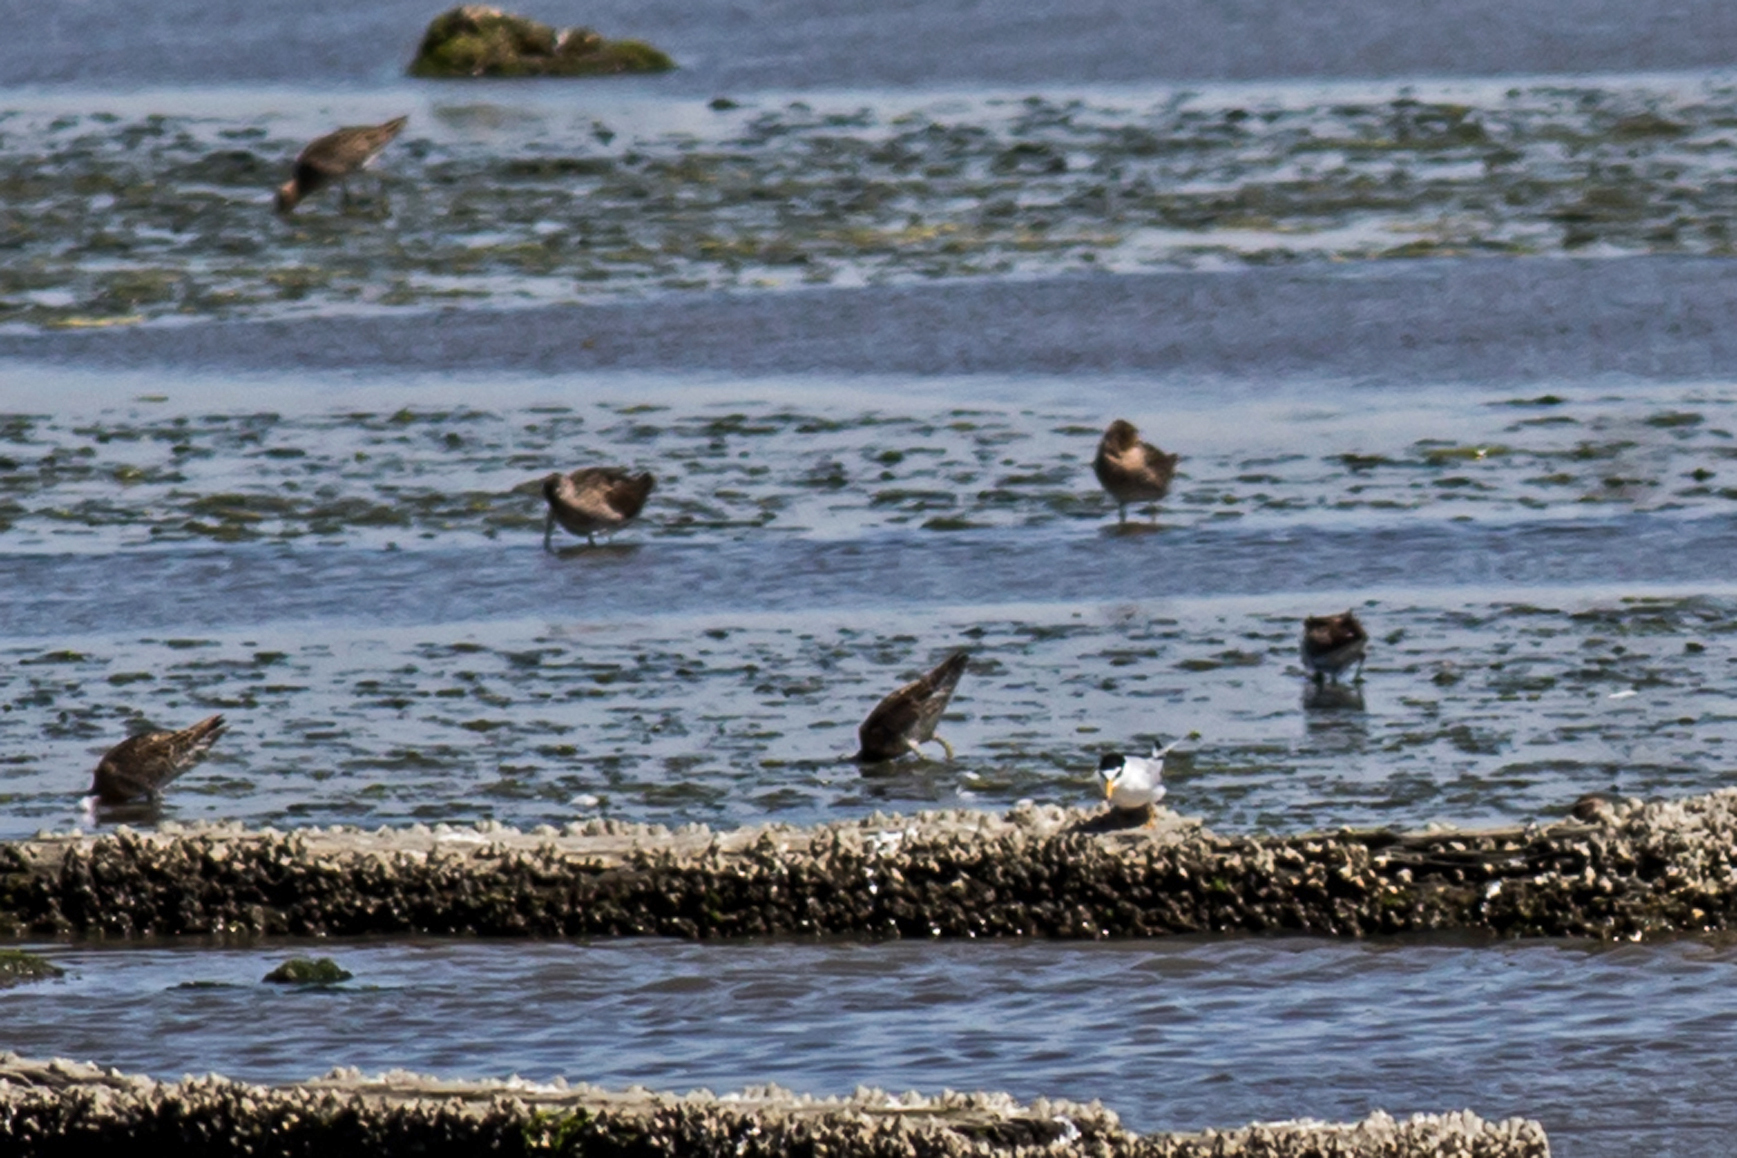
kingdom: Animalia
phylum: Chordata
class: Aves
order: Charadriiformes
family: Laridae
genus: Sternula
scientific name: Sternula antillarum
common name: Least tern
